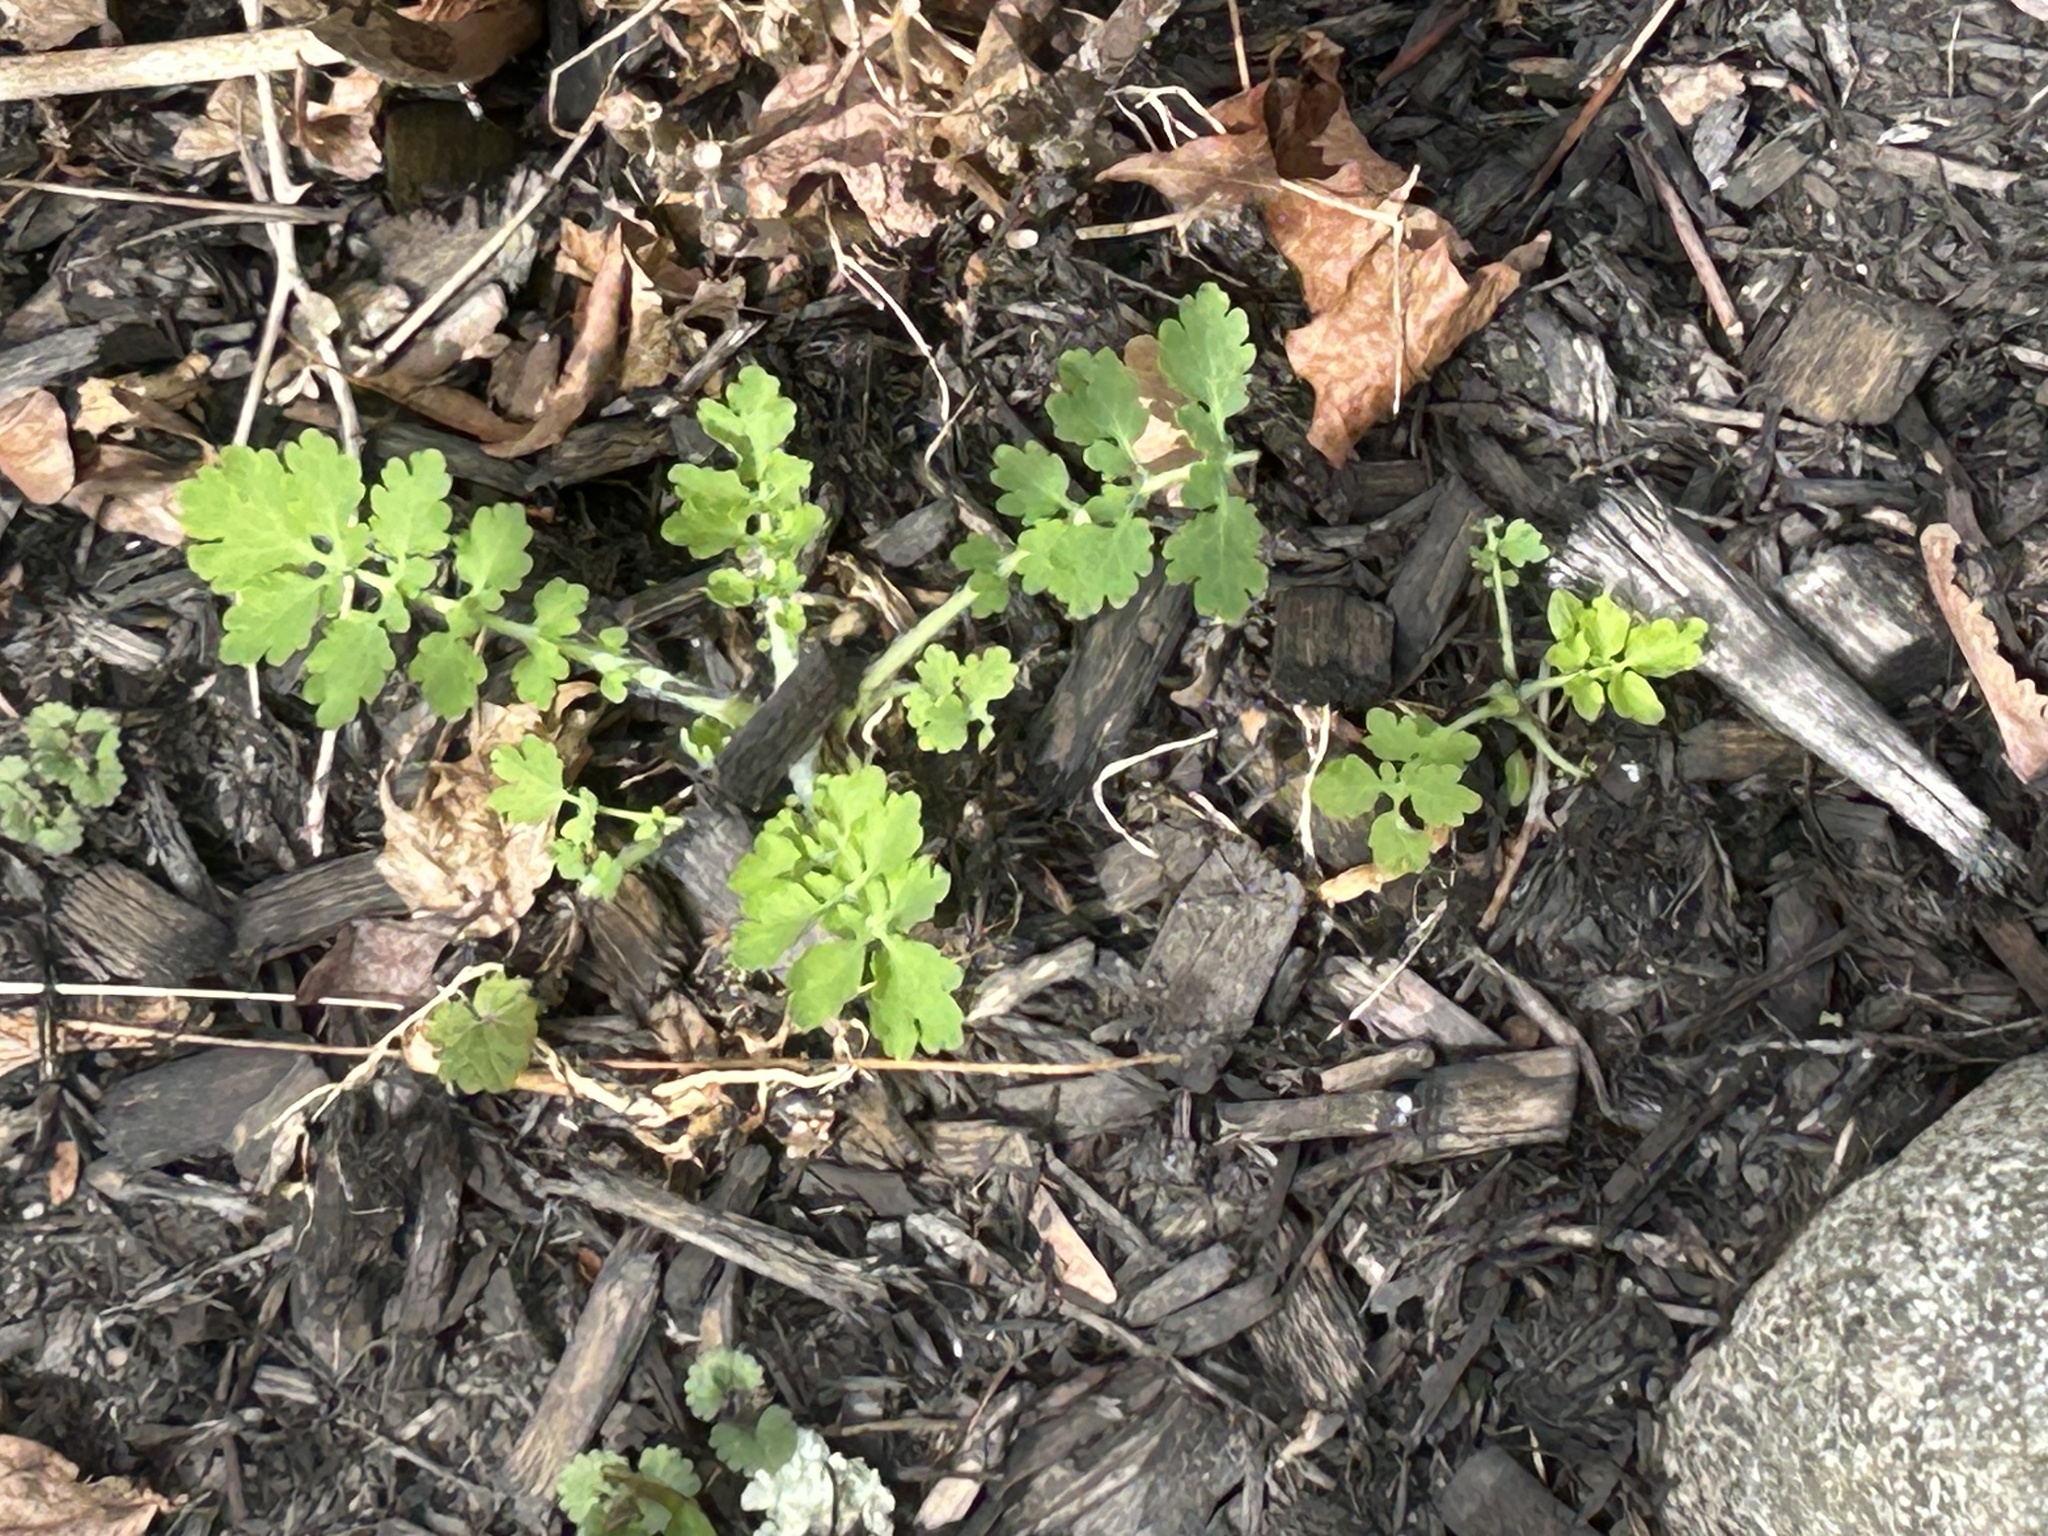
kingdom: Plantae
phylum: Tracheophyta
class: Magnoliopsida
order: Ranunculales
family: Papaveraceae
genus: Chelidonium
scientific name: Chelidonium majus
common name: Greater celandine
